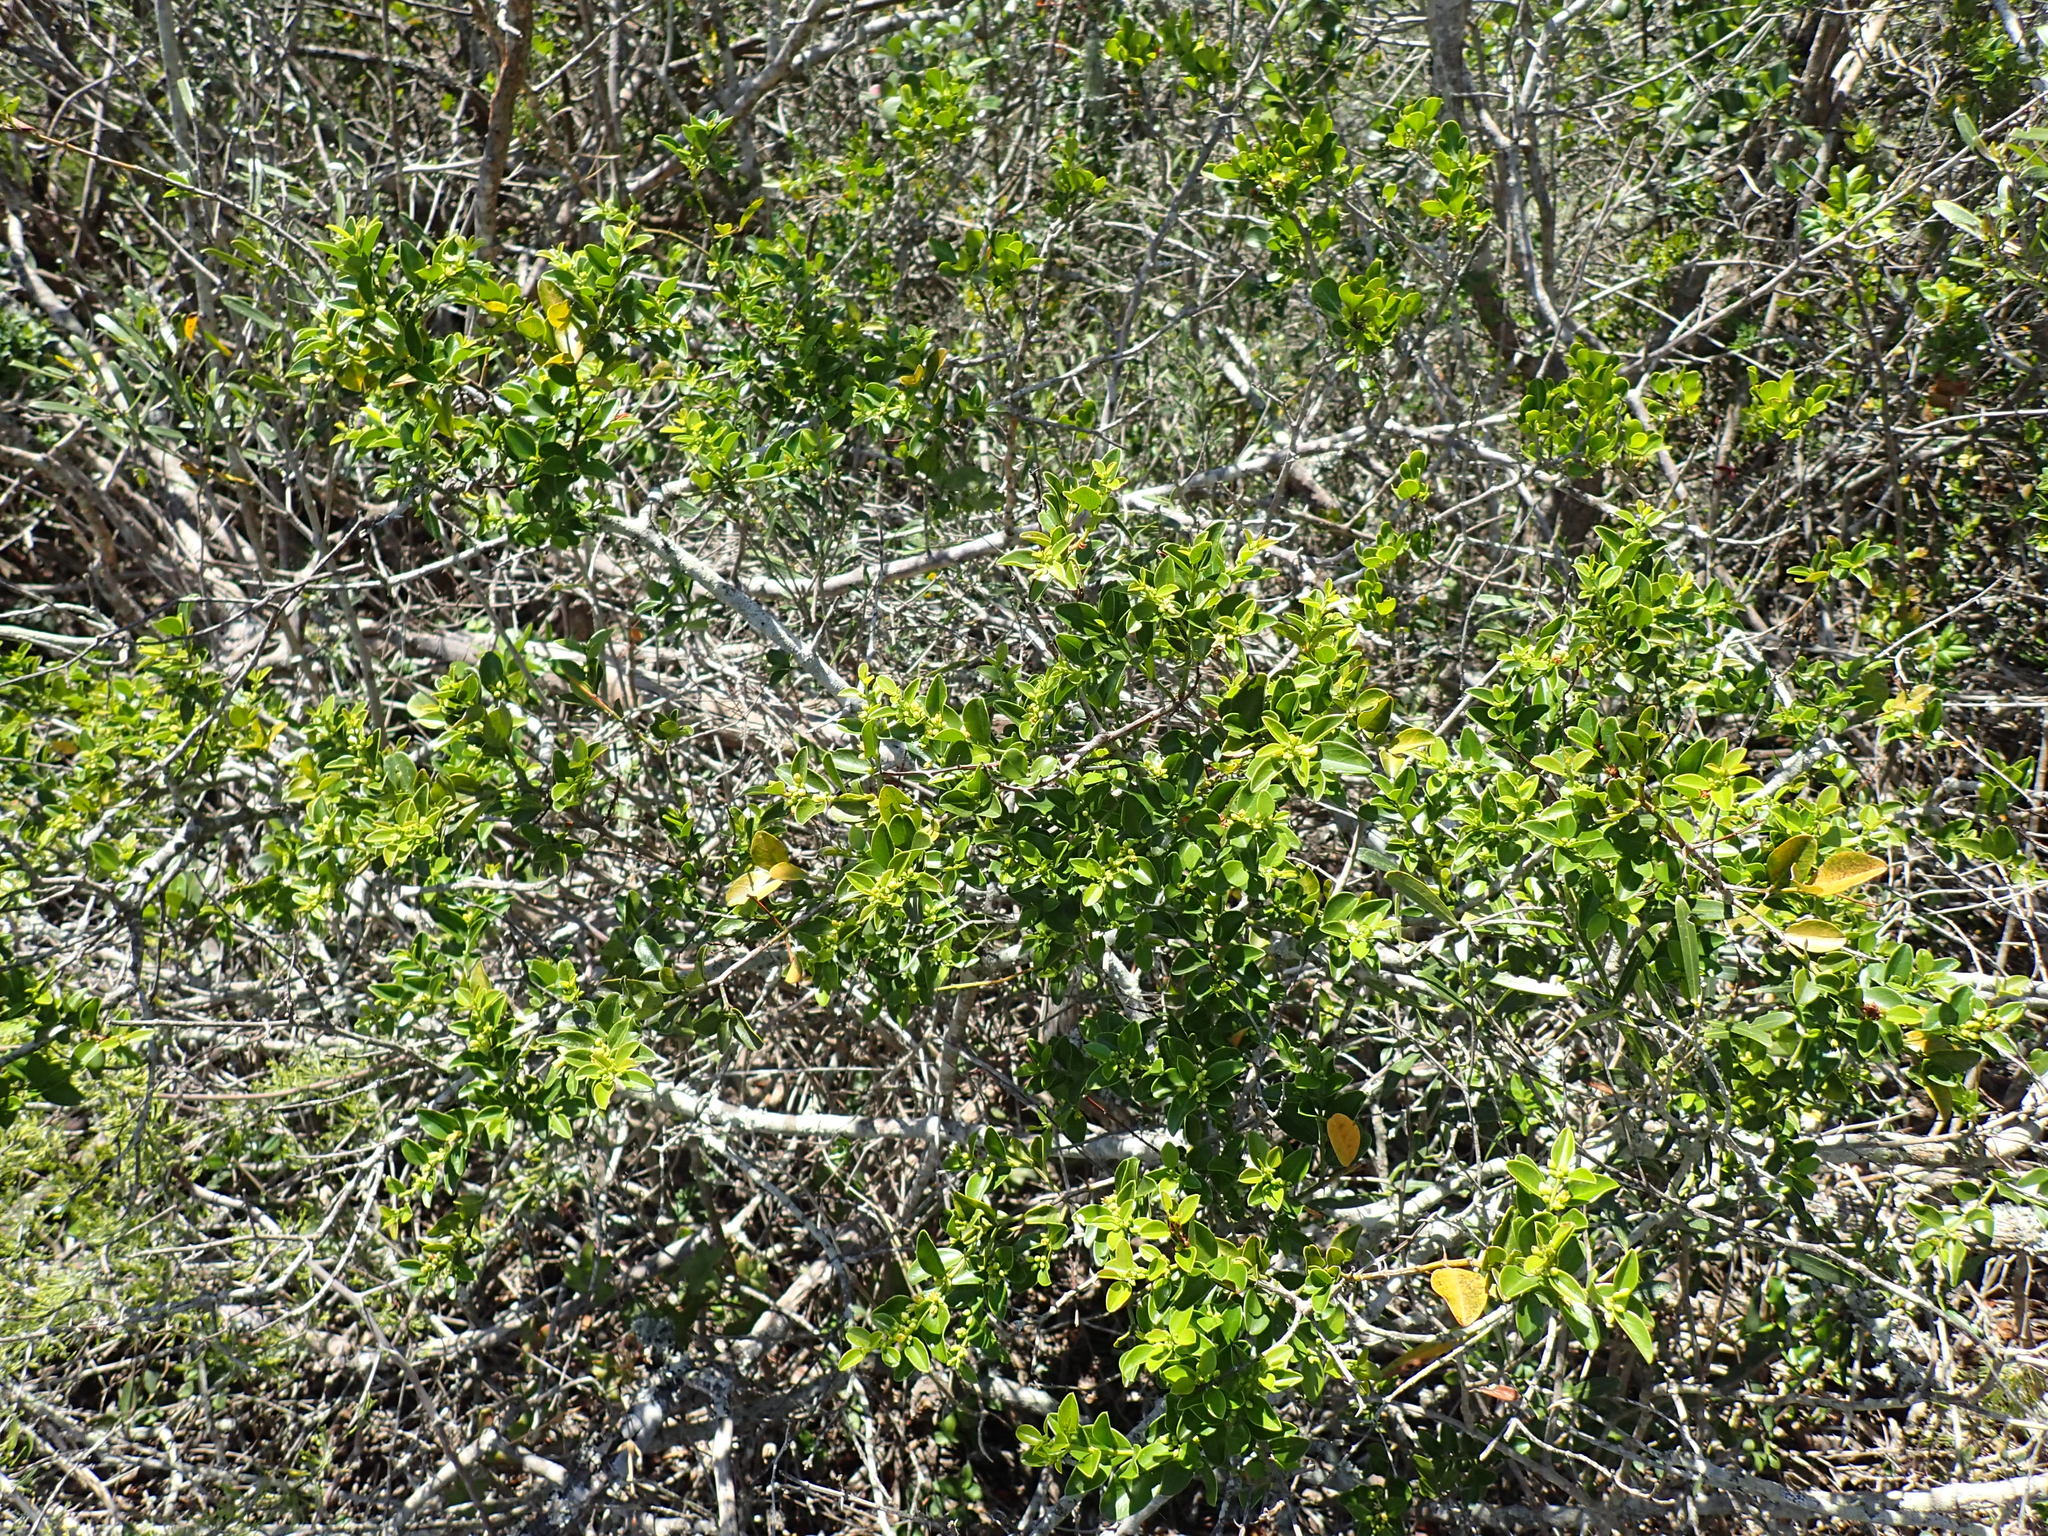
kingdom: Plantae
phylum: Tracheophyta
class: Magnoliopsida
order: Rosales
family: Rhamnaceae
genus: Scutia
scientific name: Scutia myrtina
